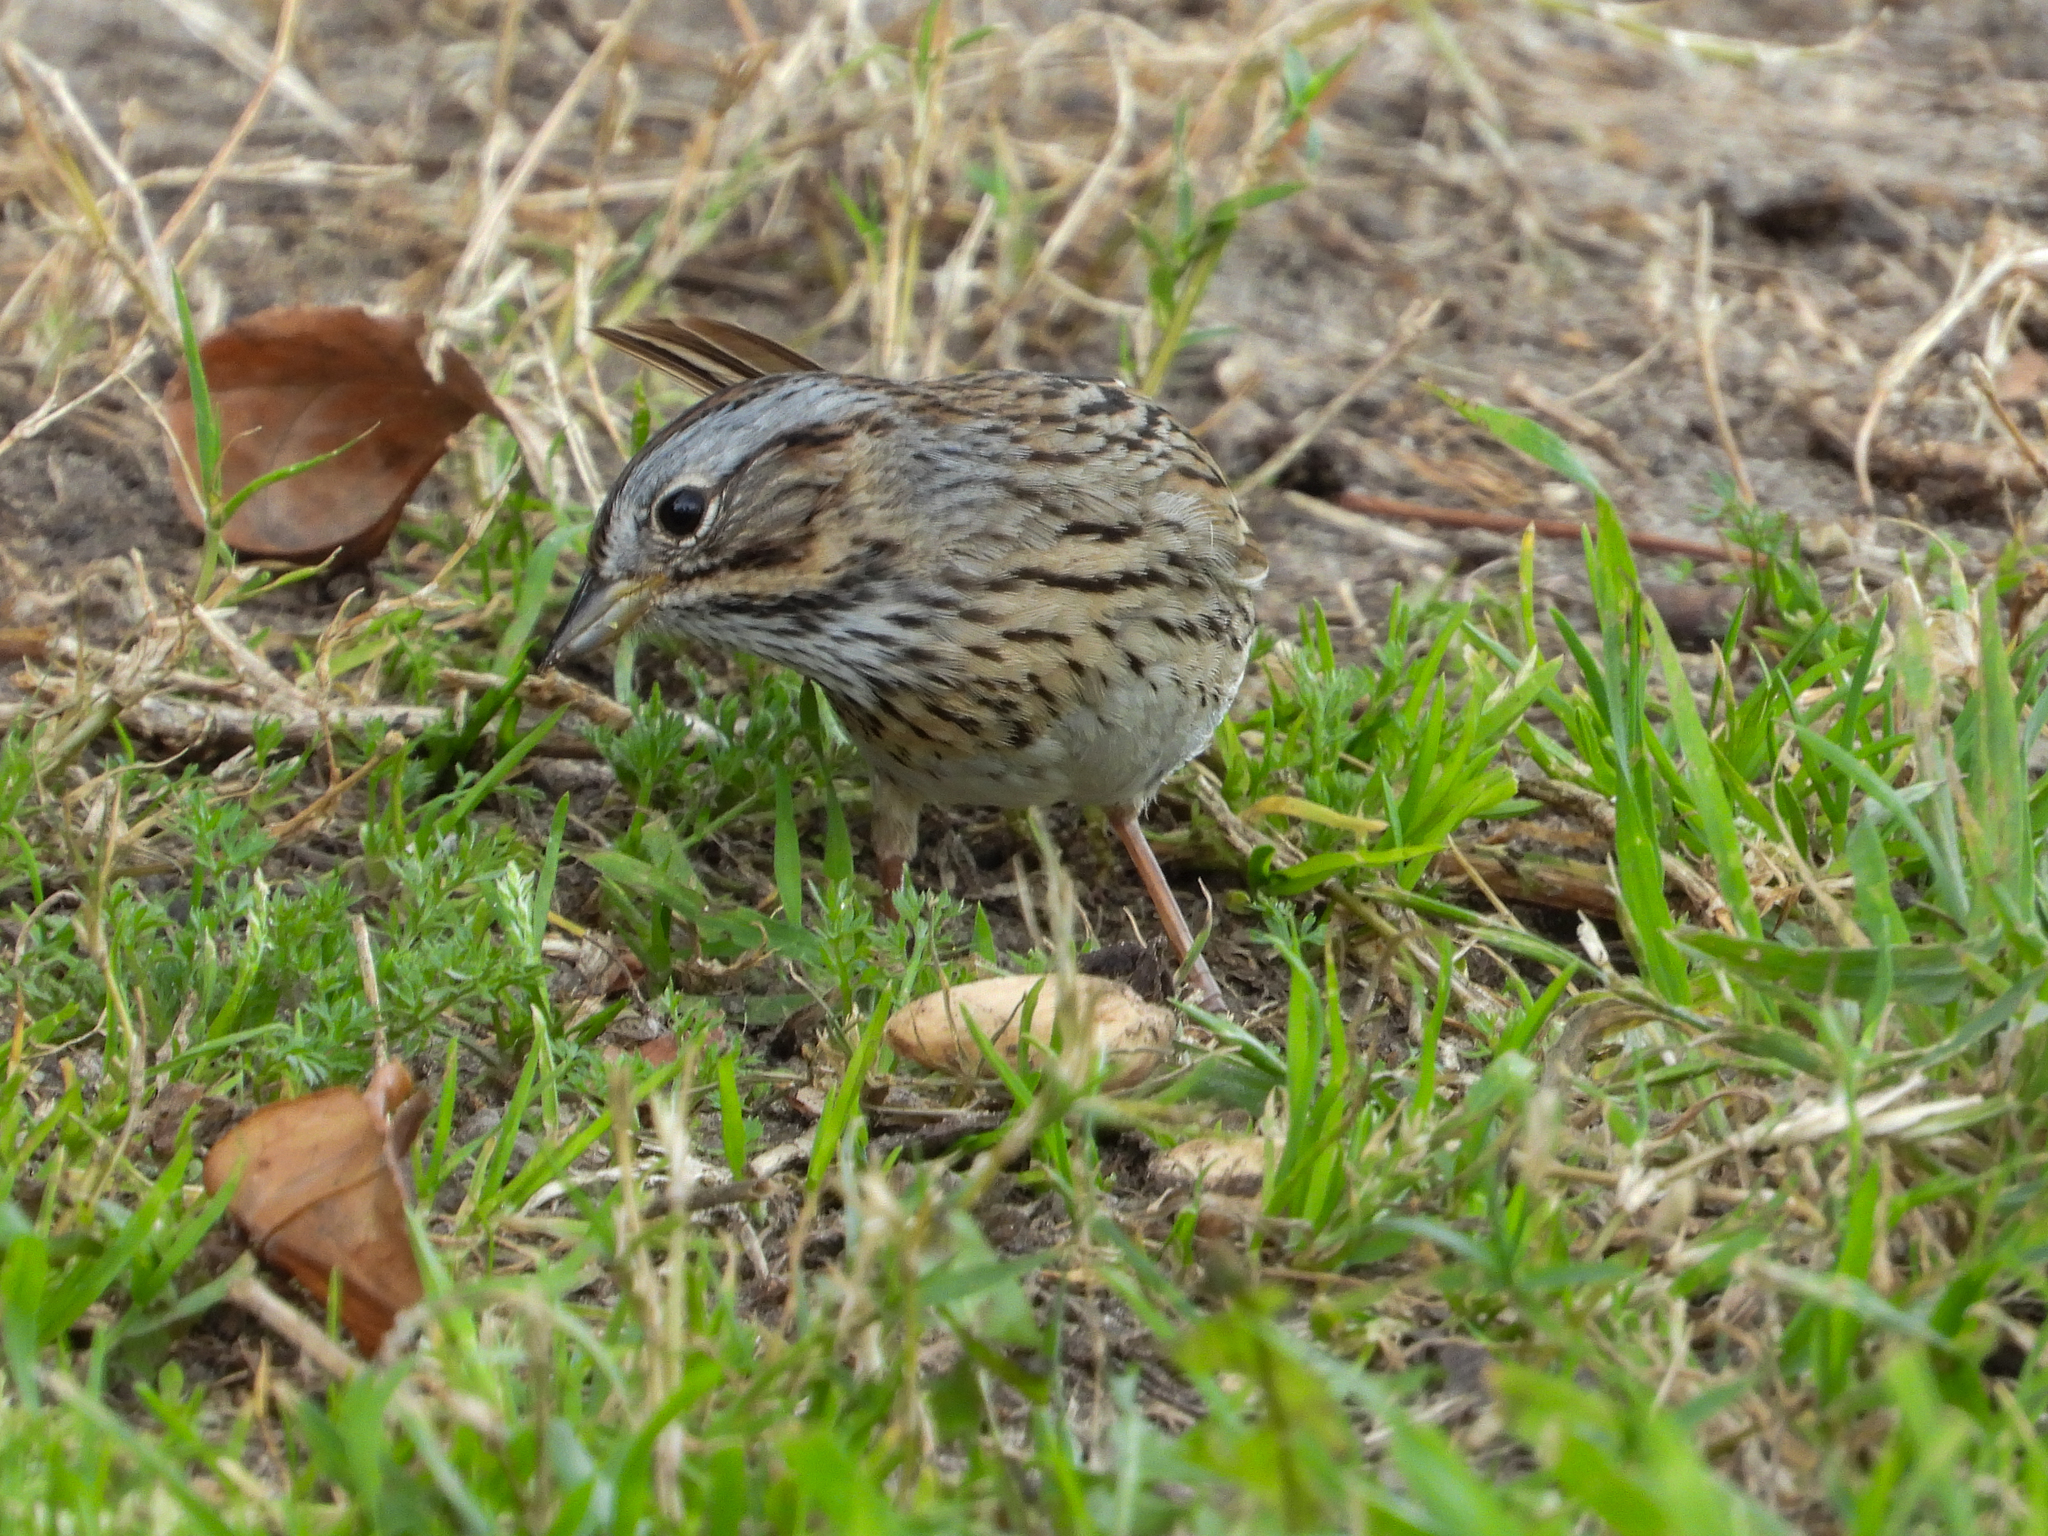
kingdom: Animalia
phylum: Chordata
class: Aves
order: Passeriformes
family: Passerellidae
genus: Melospiza
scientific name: Melospiza lincolnii
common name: Lincoln's sparrow
